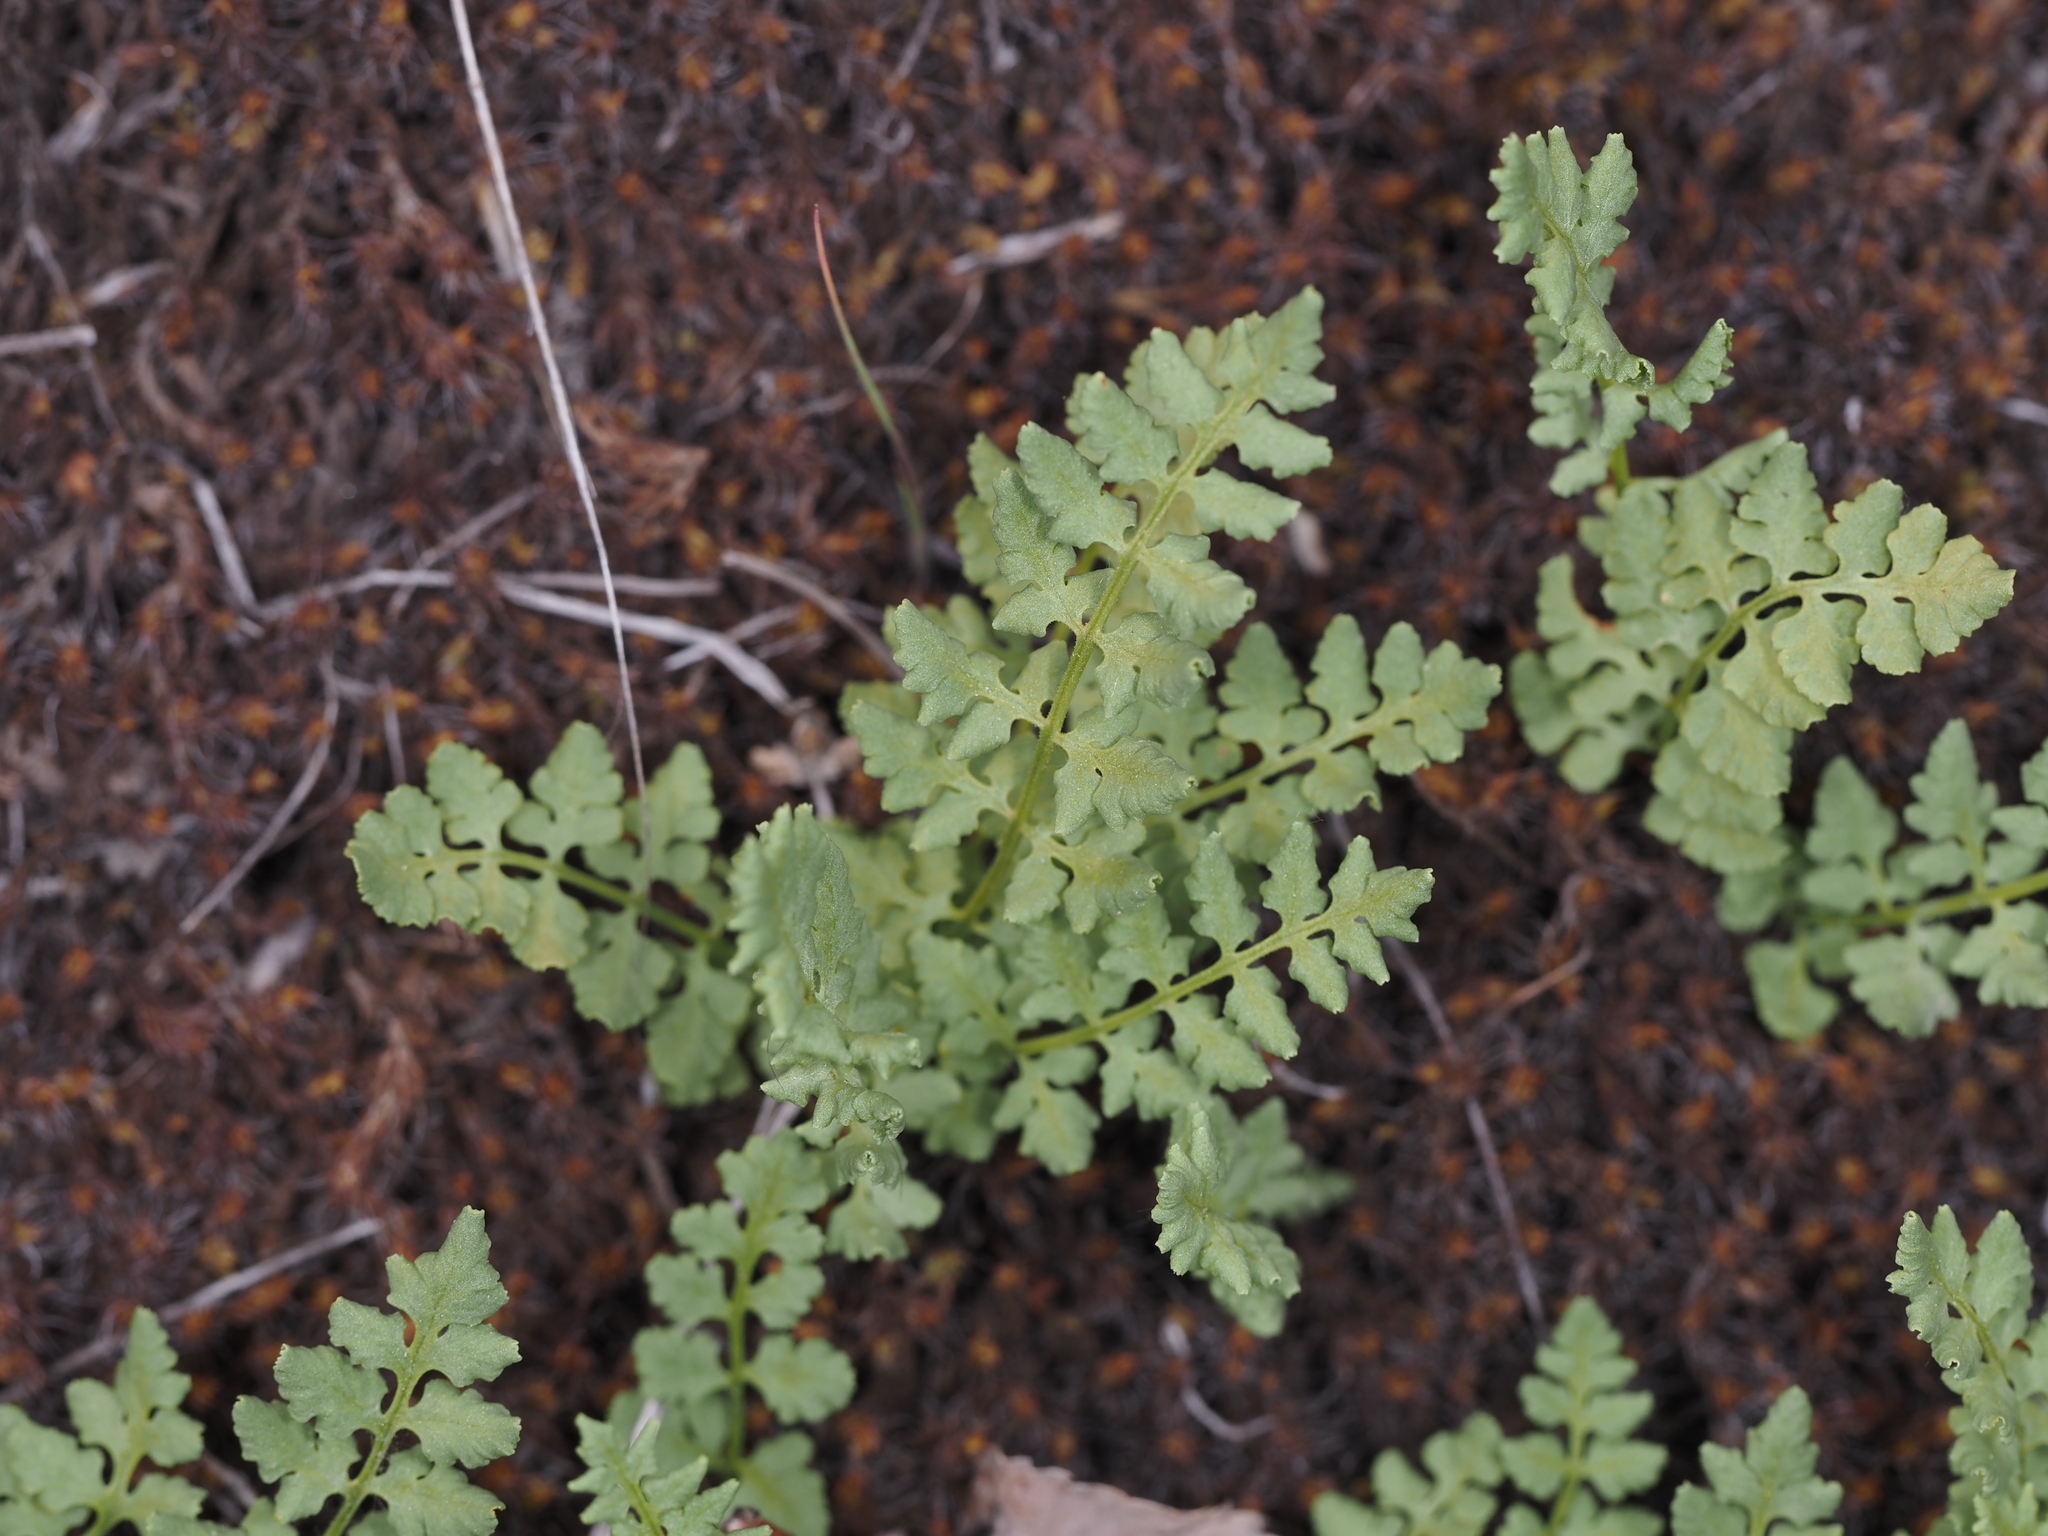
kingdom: Plantae
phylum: Tracheophyta
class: Polypodiopsida
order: Polypodiales
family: Woodsiaceae
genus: Physematium
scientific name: Physematium oreganum
